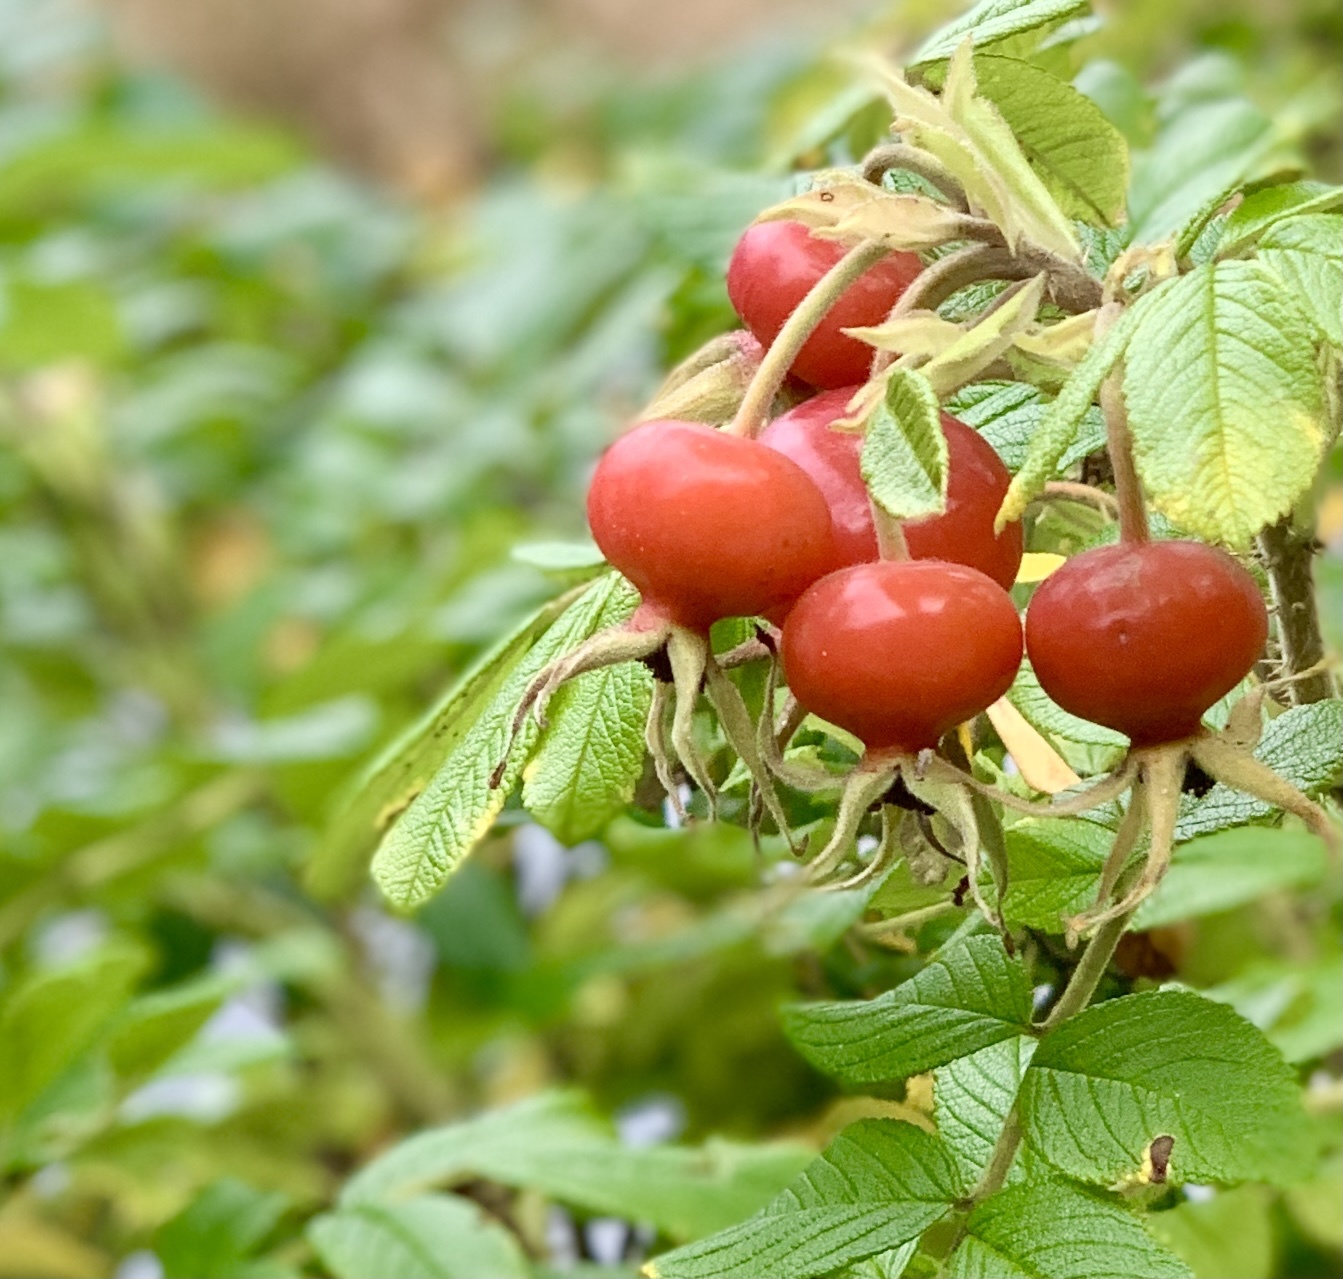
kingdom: Plantae
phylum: Tracheophyta
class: Magnoliopsida
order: Rosales
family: Rosaceae
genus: Rosa
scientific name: Rosa rugosa
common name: Japanese rose
